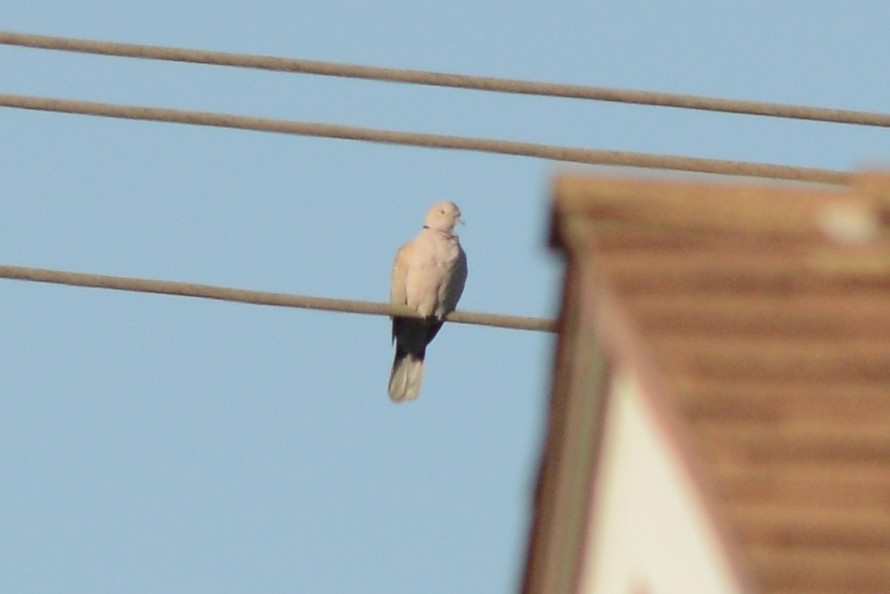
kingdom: Animalia
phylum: Chordata
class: Aves
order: Columbiformes
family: Columbidae
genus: Streptopelia
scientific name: Streptopelia decaocto
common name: Eurasian collared dove
